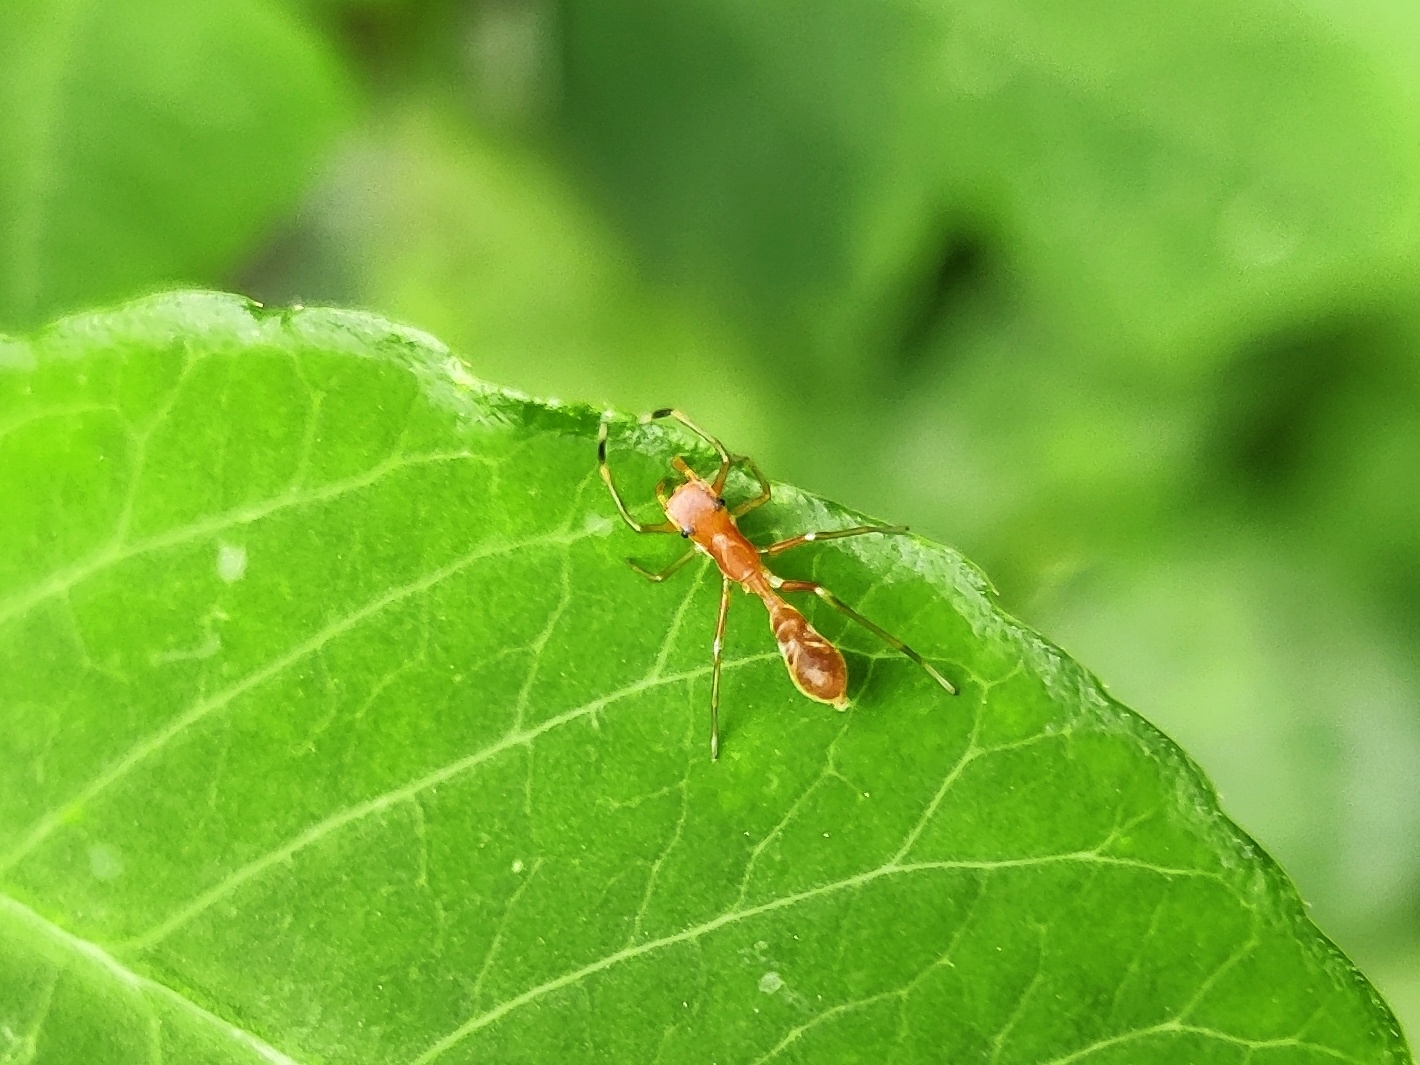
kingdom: Animalia
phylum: Arthropoda
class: Arachnida
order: Araneae
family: Salticidae
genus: Myrmaplata
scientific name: Myrmaplata plataleoides
